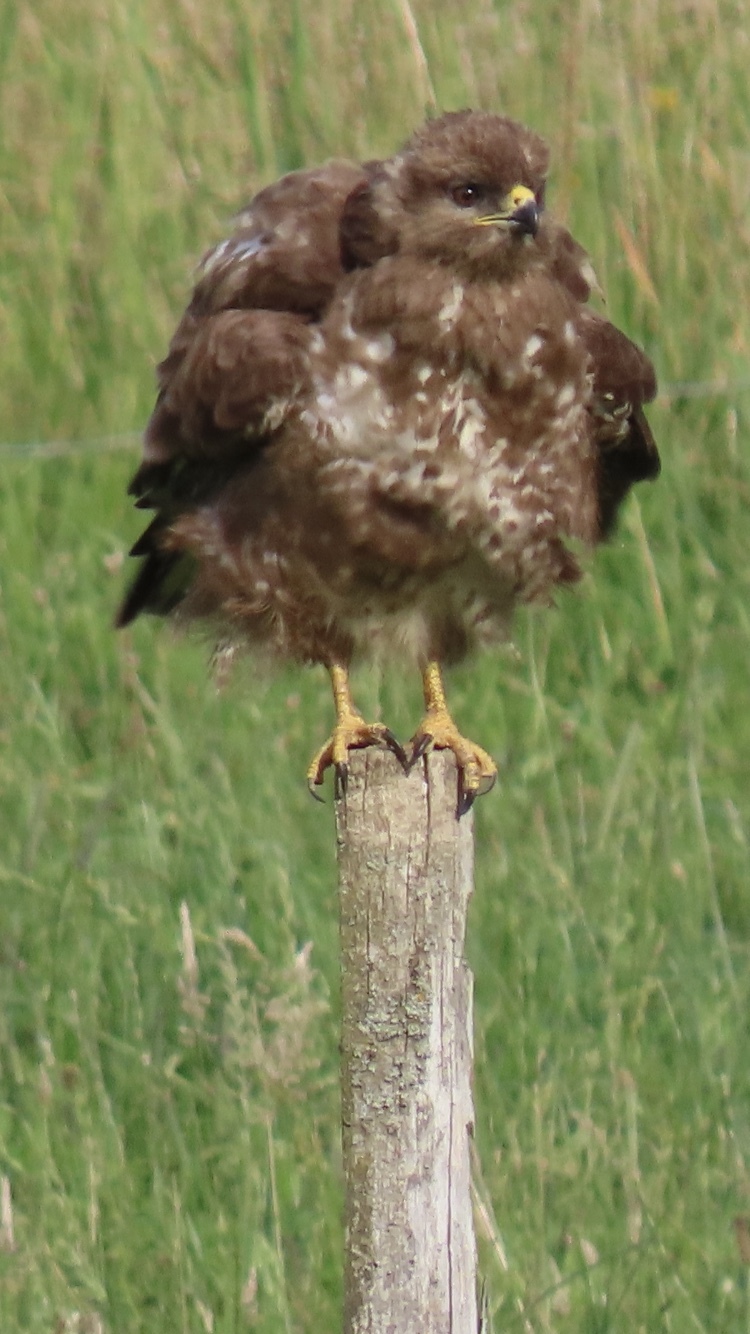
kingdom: Animalia
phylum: Chordata
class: Aves
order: Accipitriformes
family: Accipitridae
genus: Buteo
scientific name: Buteo buteo
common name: Common buzzard
